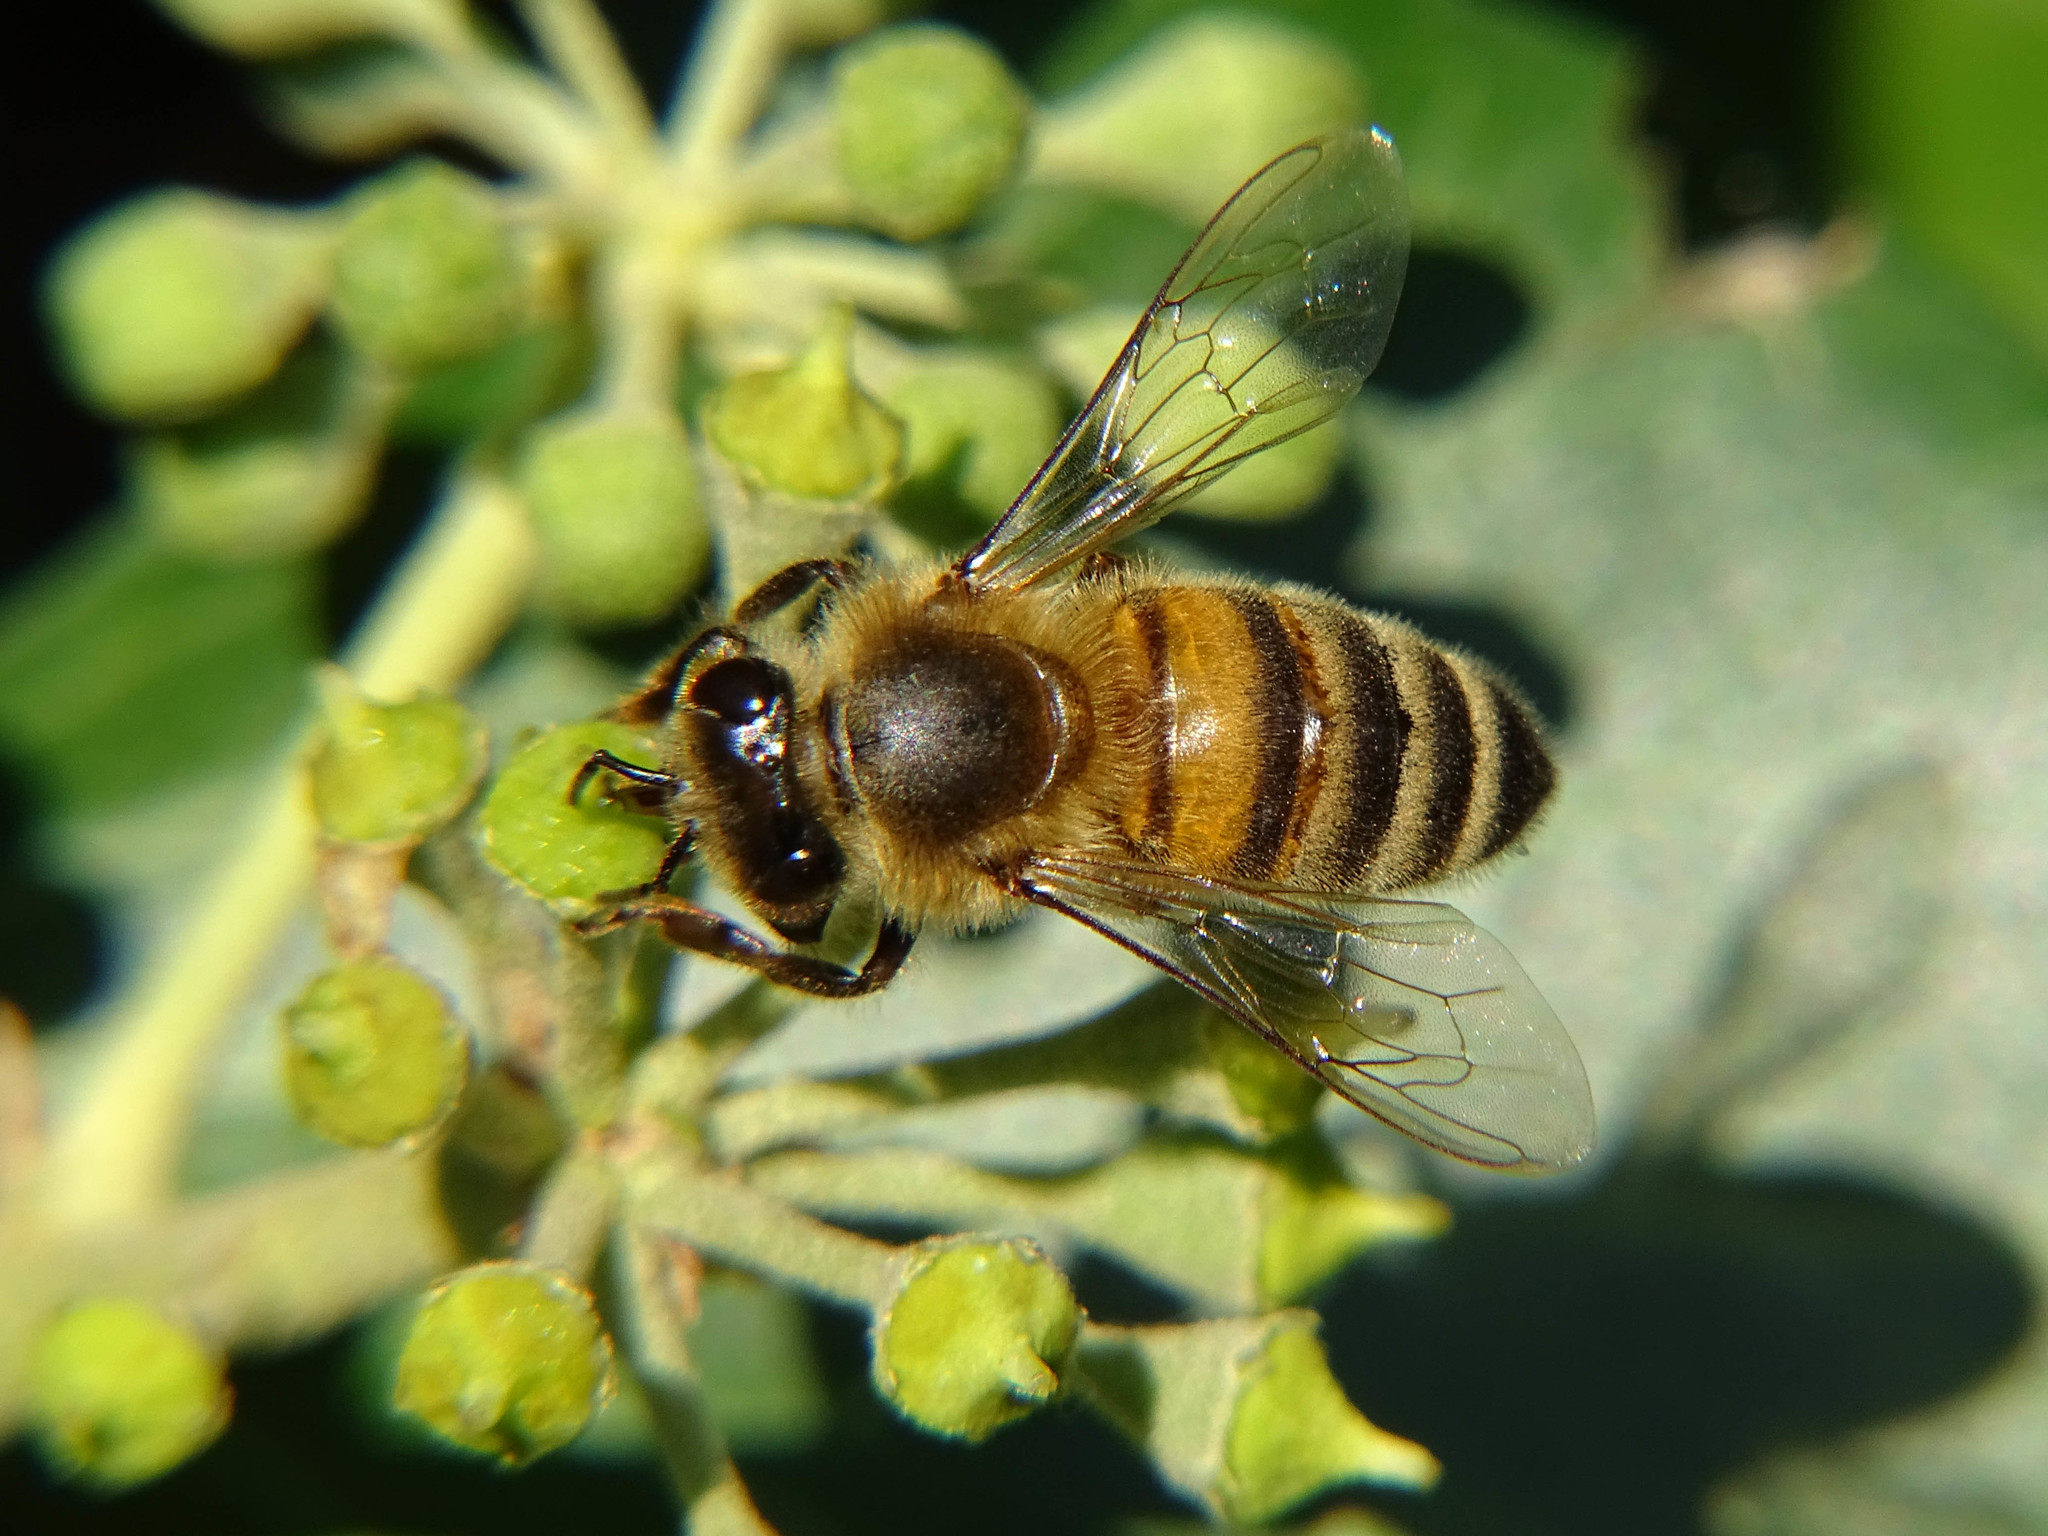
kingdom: Animalia
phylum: Arthropoda
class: Insecta
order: Hymenoptera
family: Apidae
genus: Apis
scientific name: Apis mellifera
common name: Honey bee
